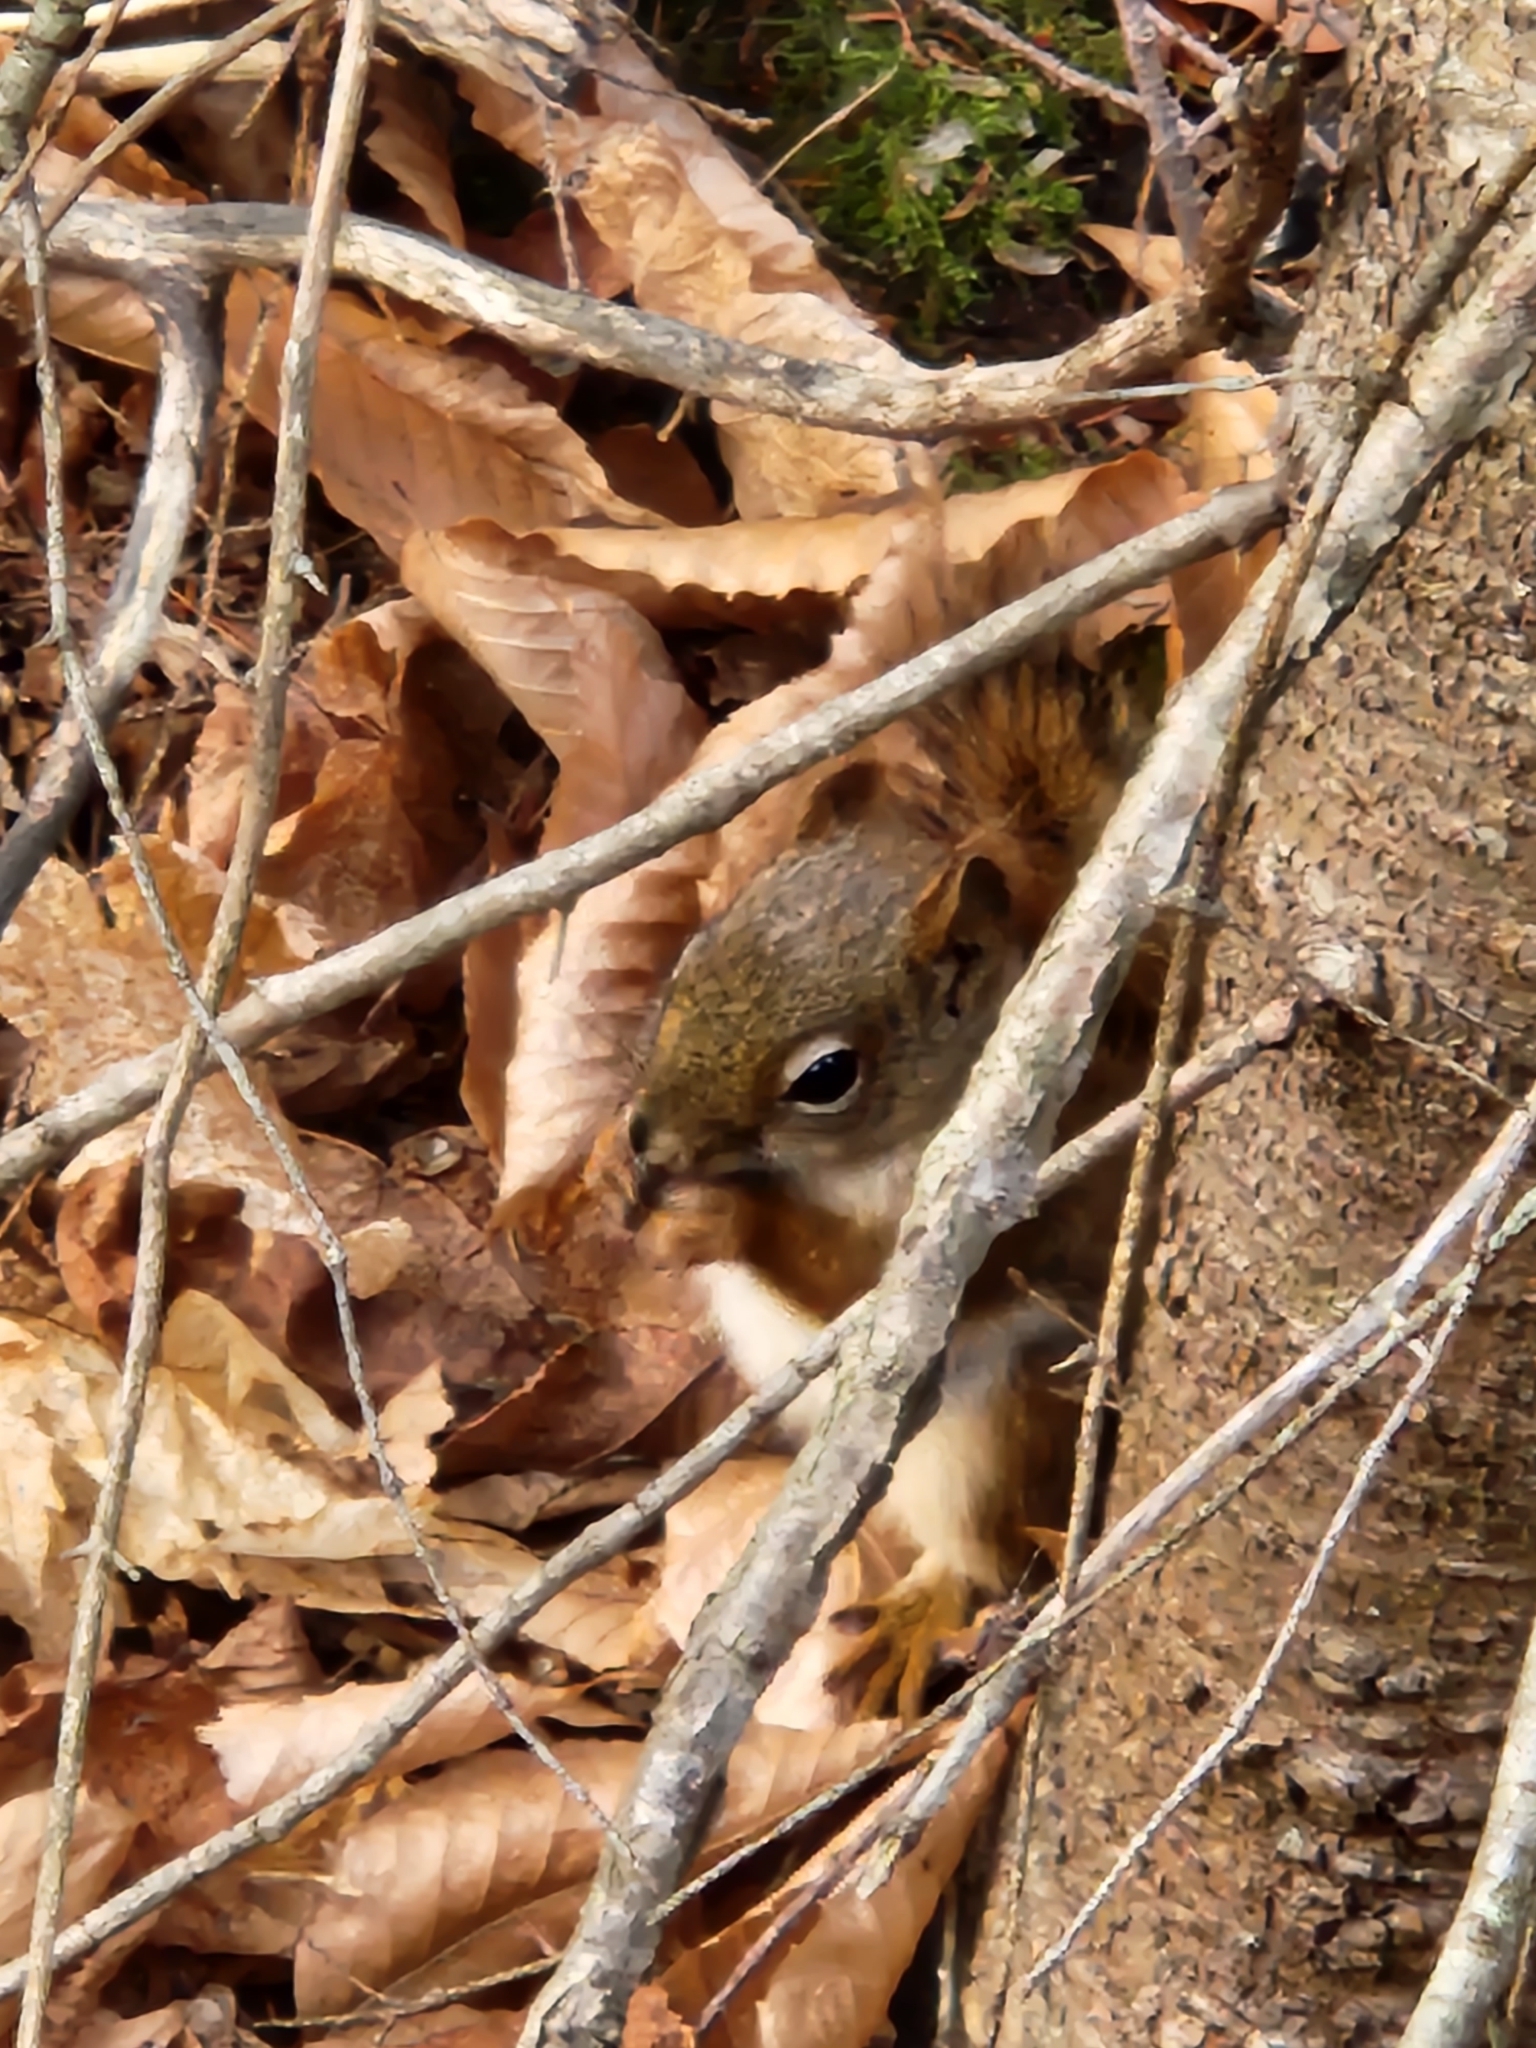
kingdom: Animalia
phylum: Chordata
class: Mammalia
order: Rodentia
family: Sciuridae
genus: Tamiasciurus
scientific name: Tamiasciurus hudsonicus
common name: Red squirrel
